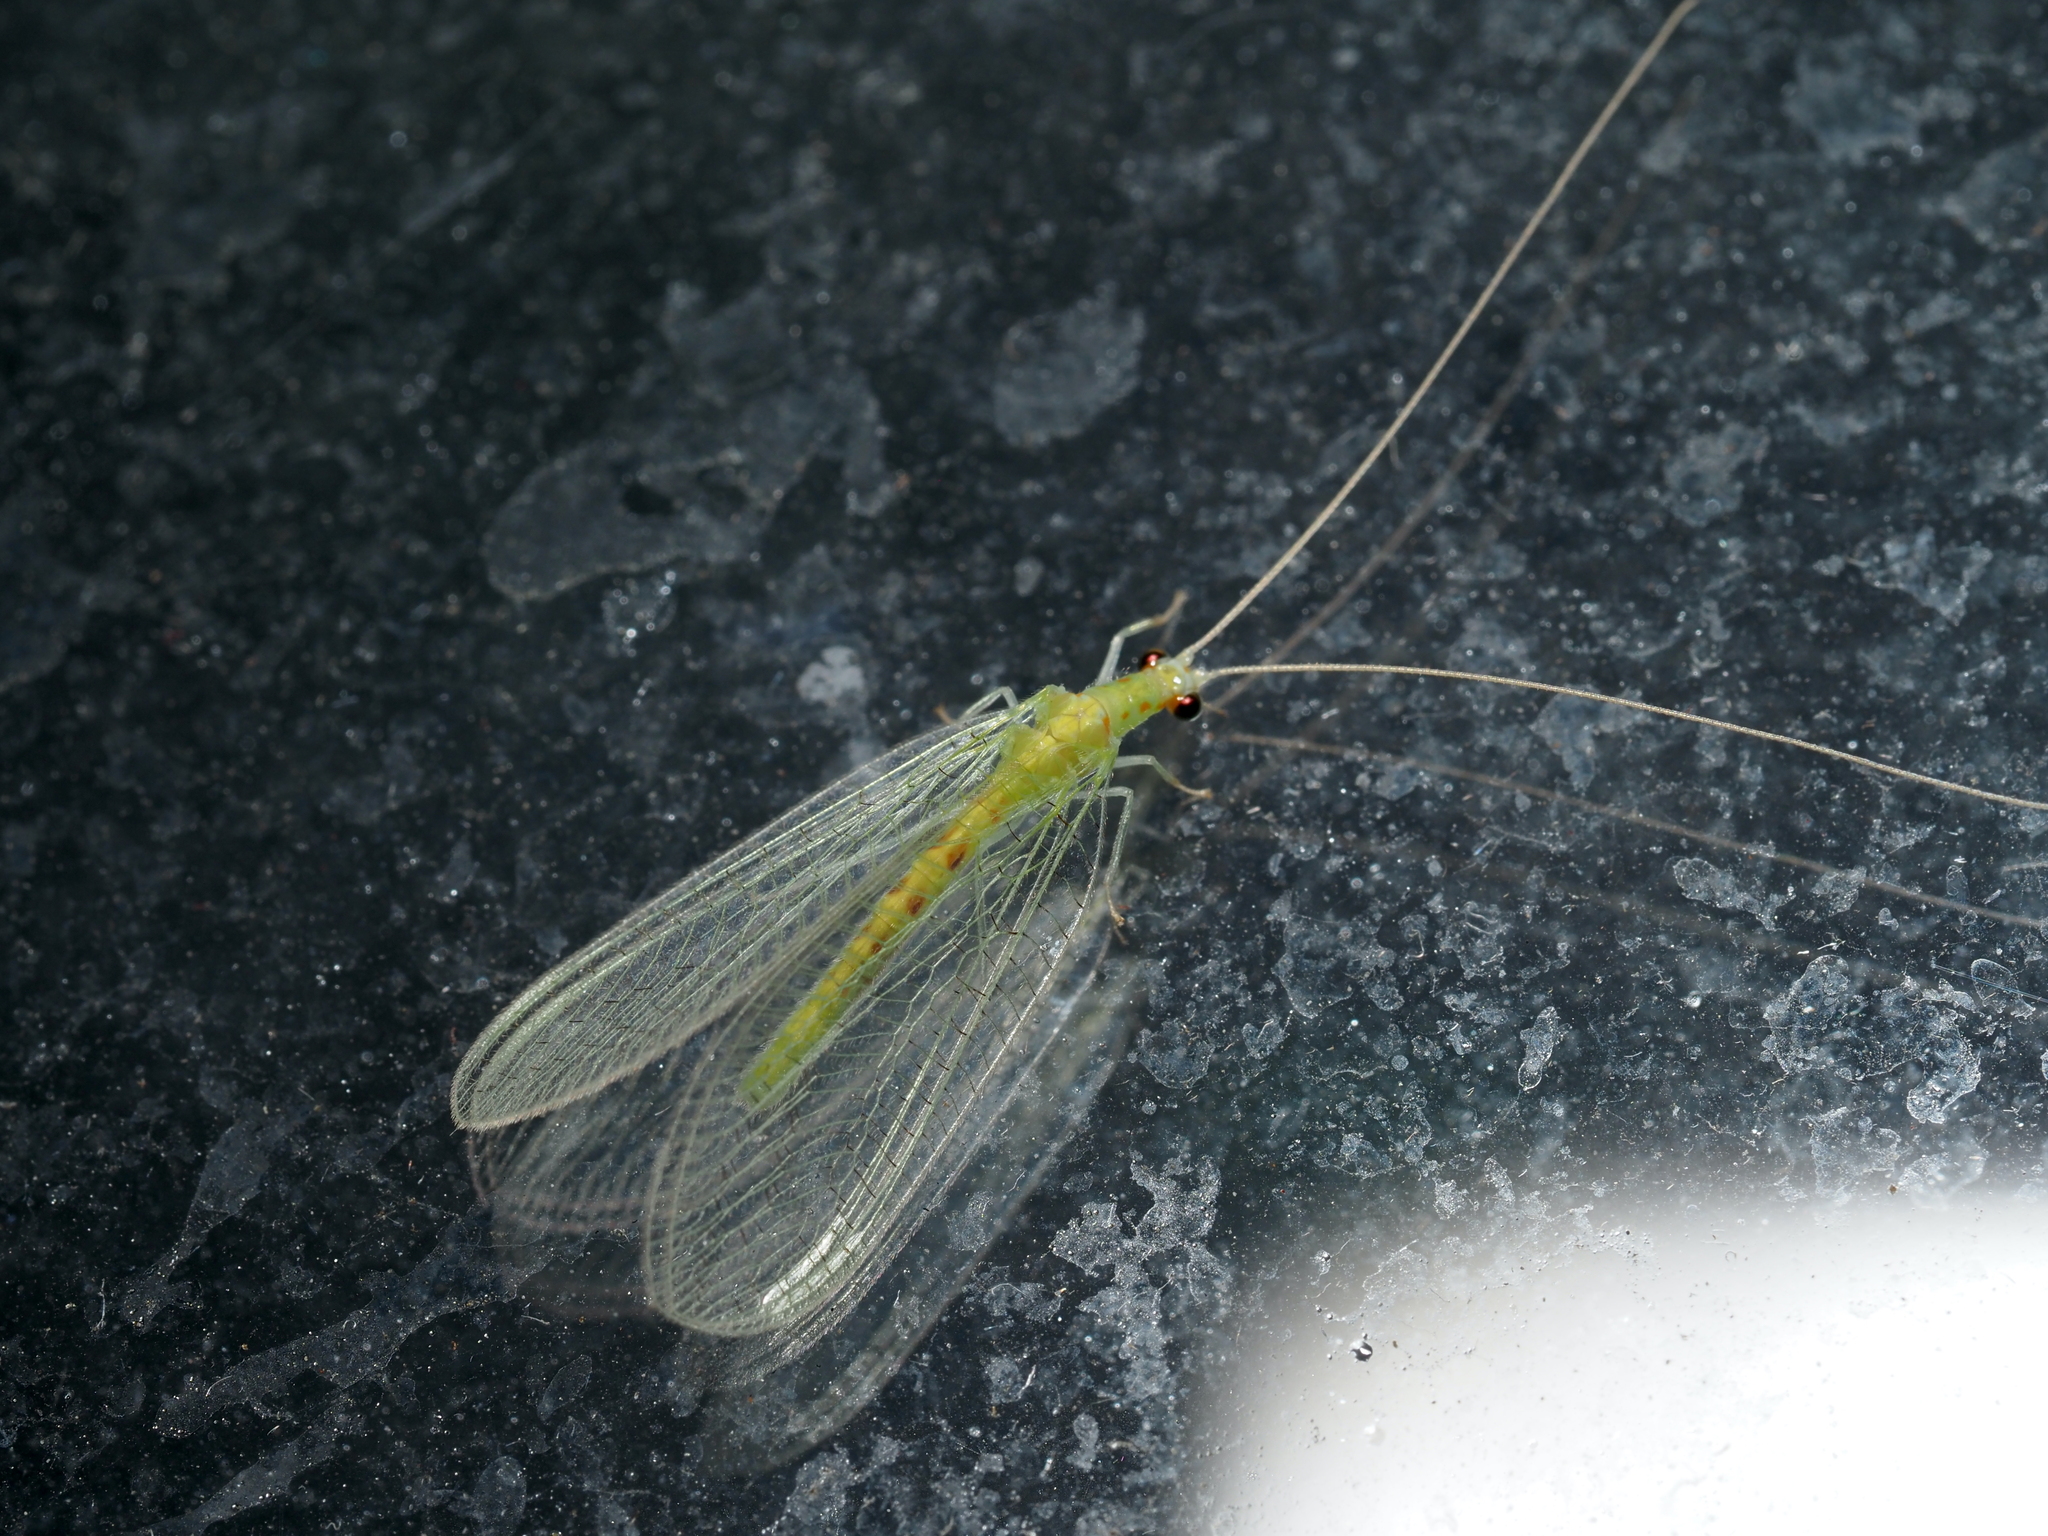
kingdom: Animalia
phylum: Arthropoda
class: Insecta
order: Neuroptera
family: Chrysopidae
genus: Chrysopa
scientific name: Chrysopa quadripunctata
